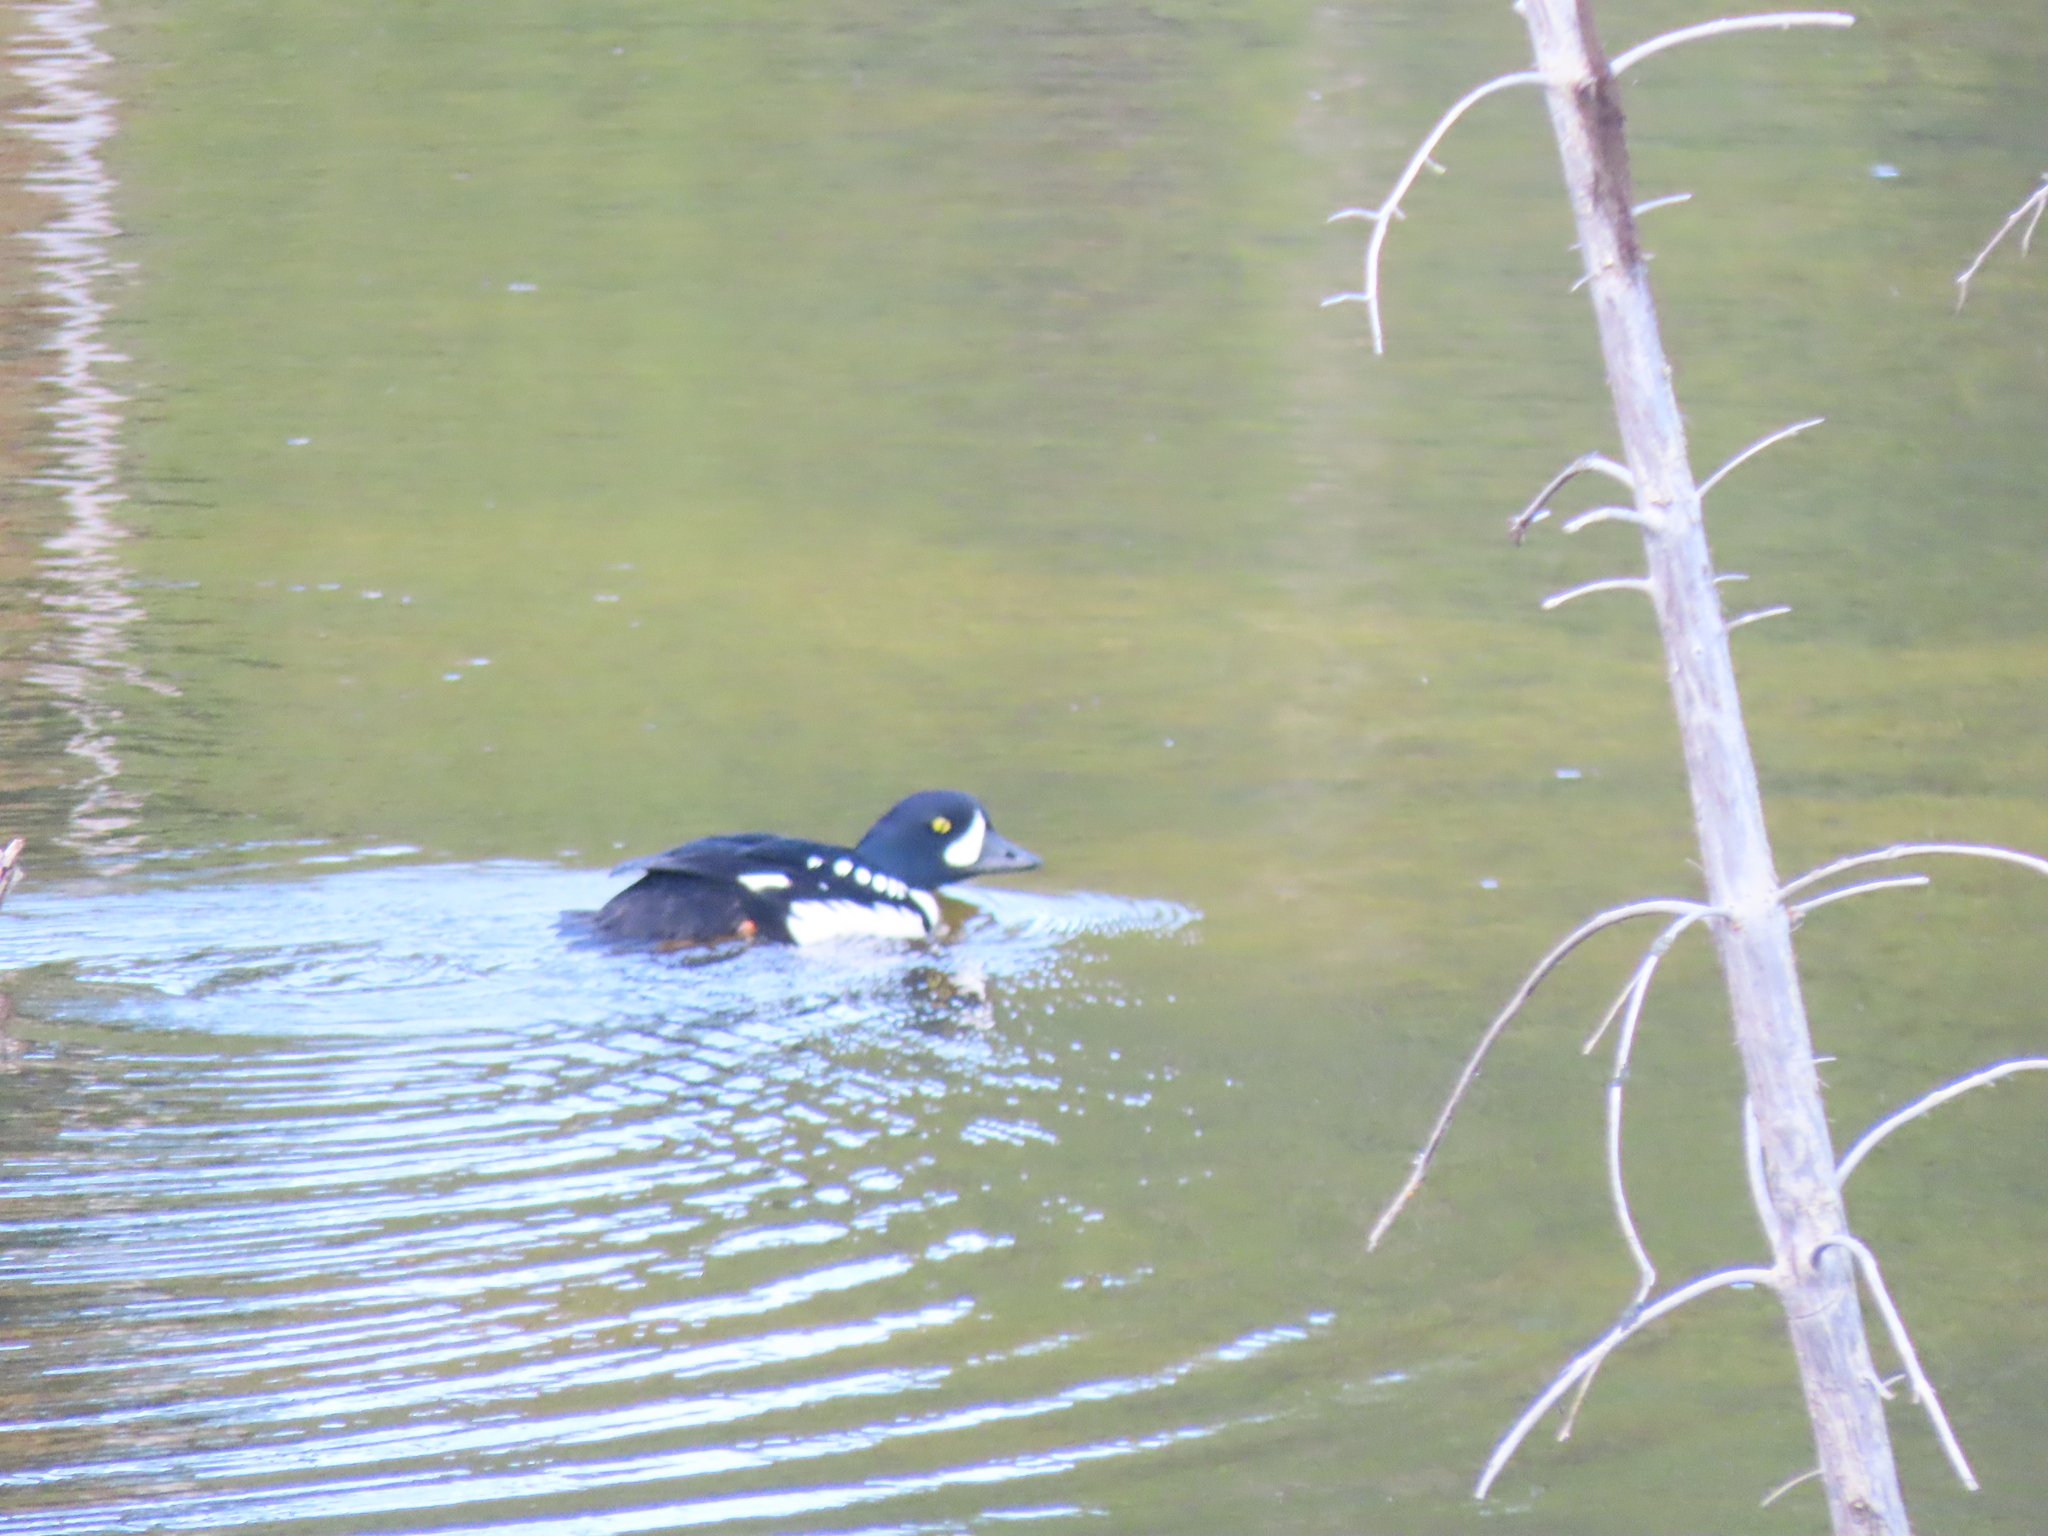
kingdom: Animalia
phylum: Chordata
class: Aves
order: Anseriformes
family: Anatidae
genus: Bucephala
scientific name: Bucephala islandica
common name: Barrow's goldeneye
